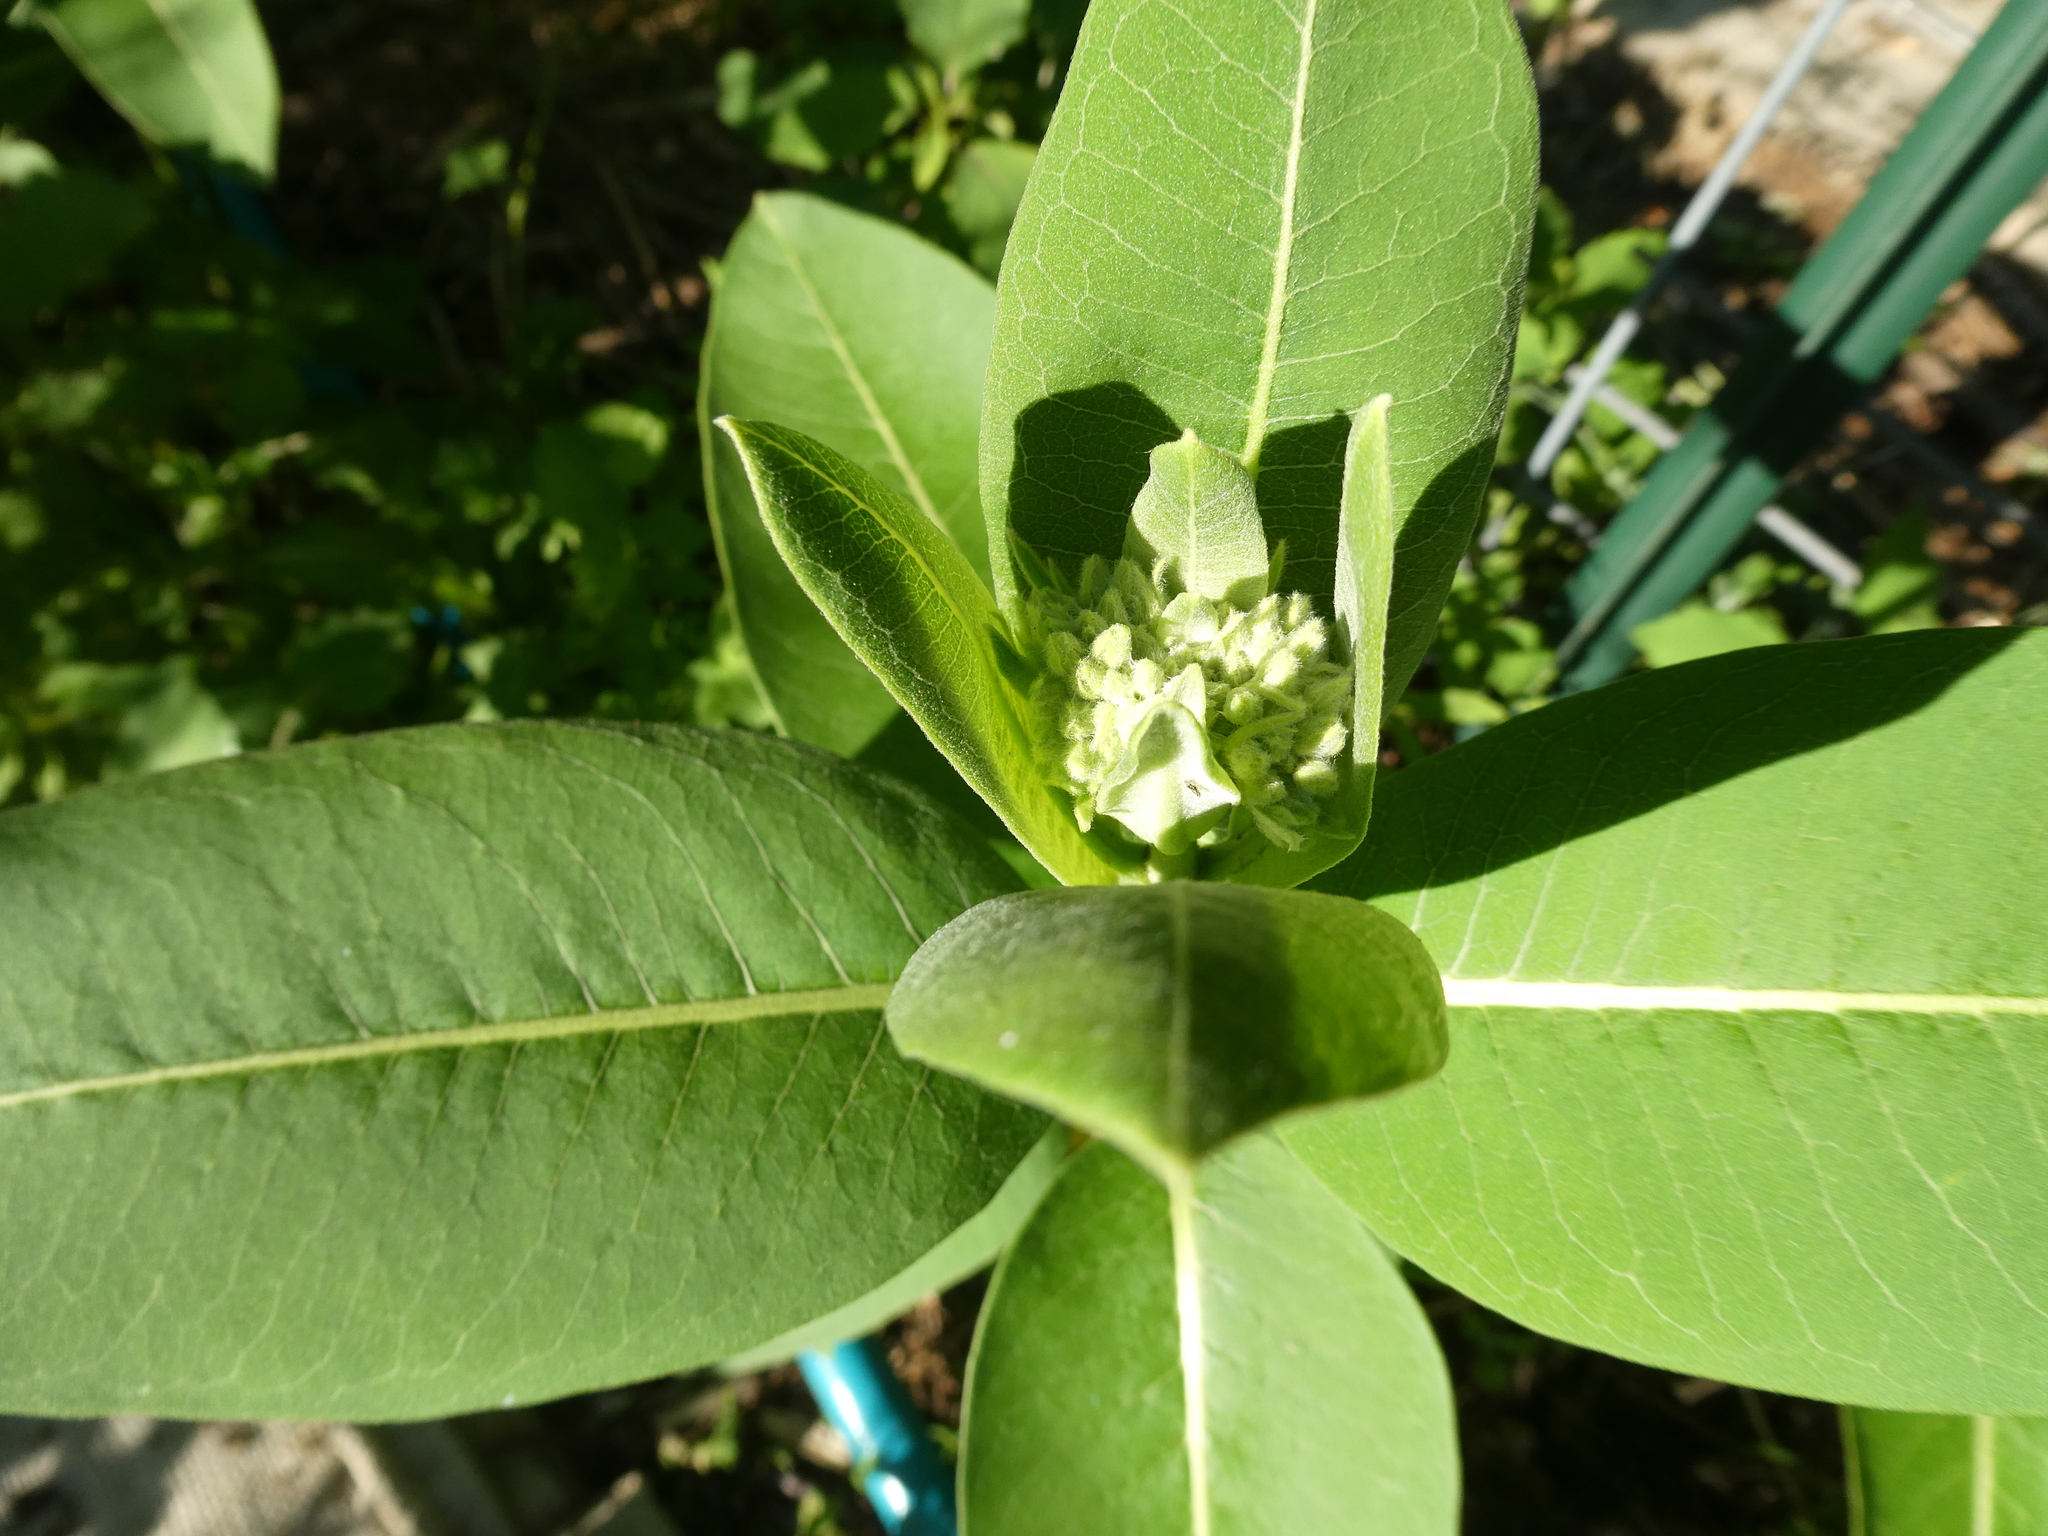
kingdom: Plantae
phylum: Tracheophyta
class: Magnoliopsida
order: Gentianales
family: Apocynaceae
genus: Asclepias
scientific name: Asclepias syriaca
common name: Common milkweed
